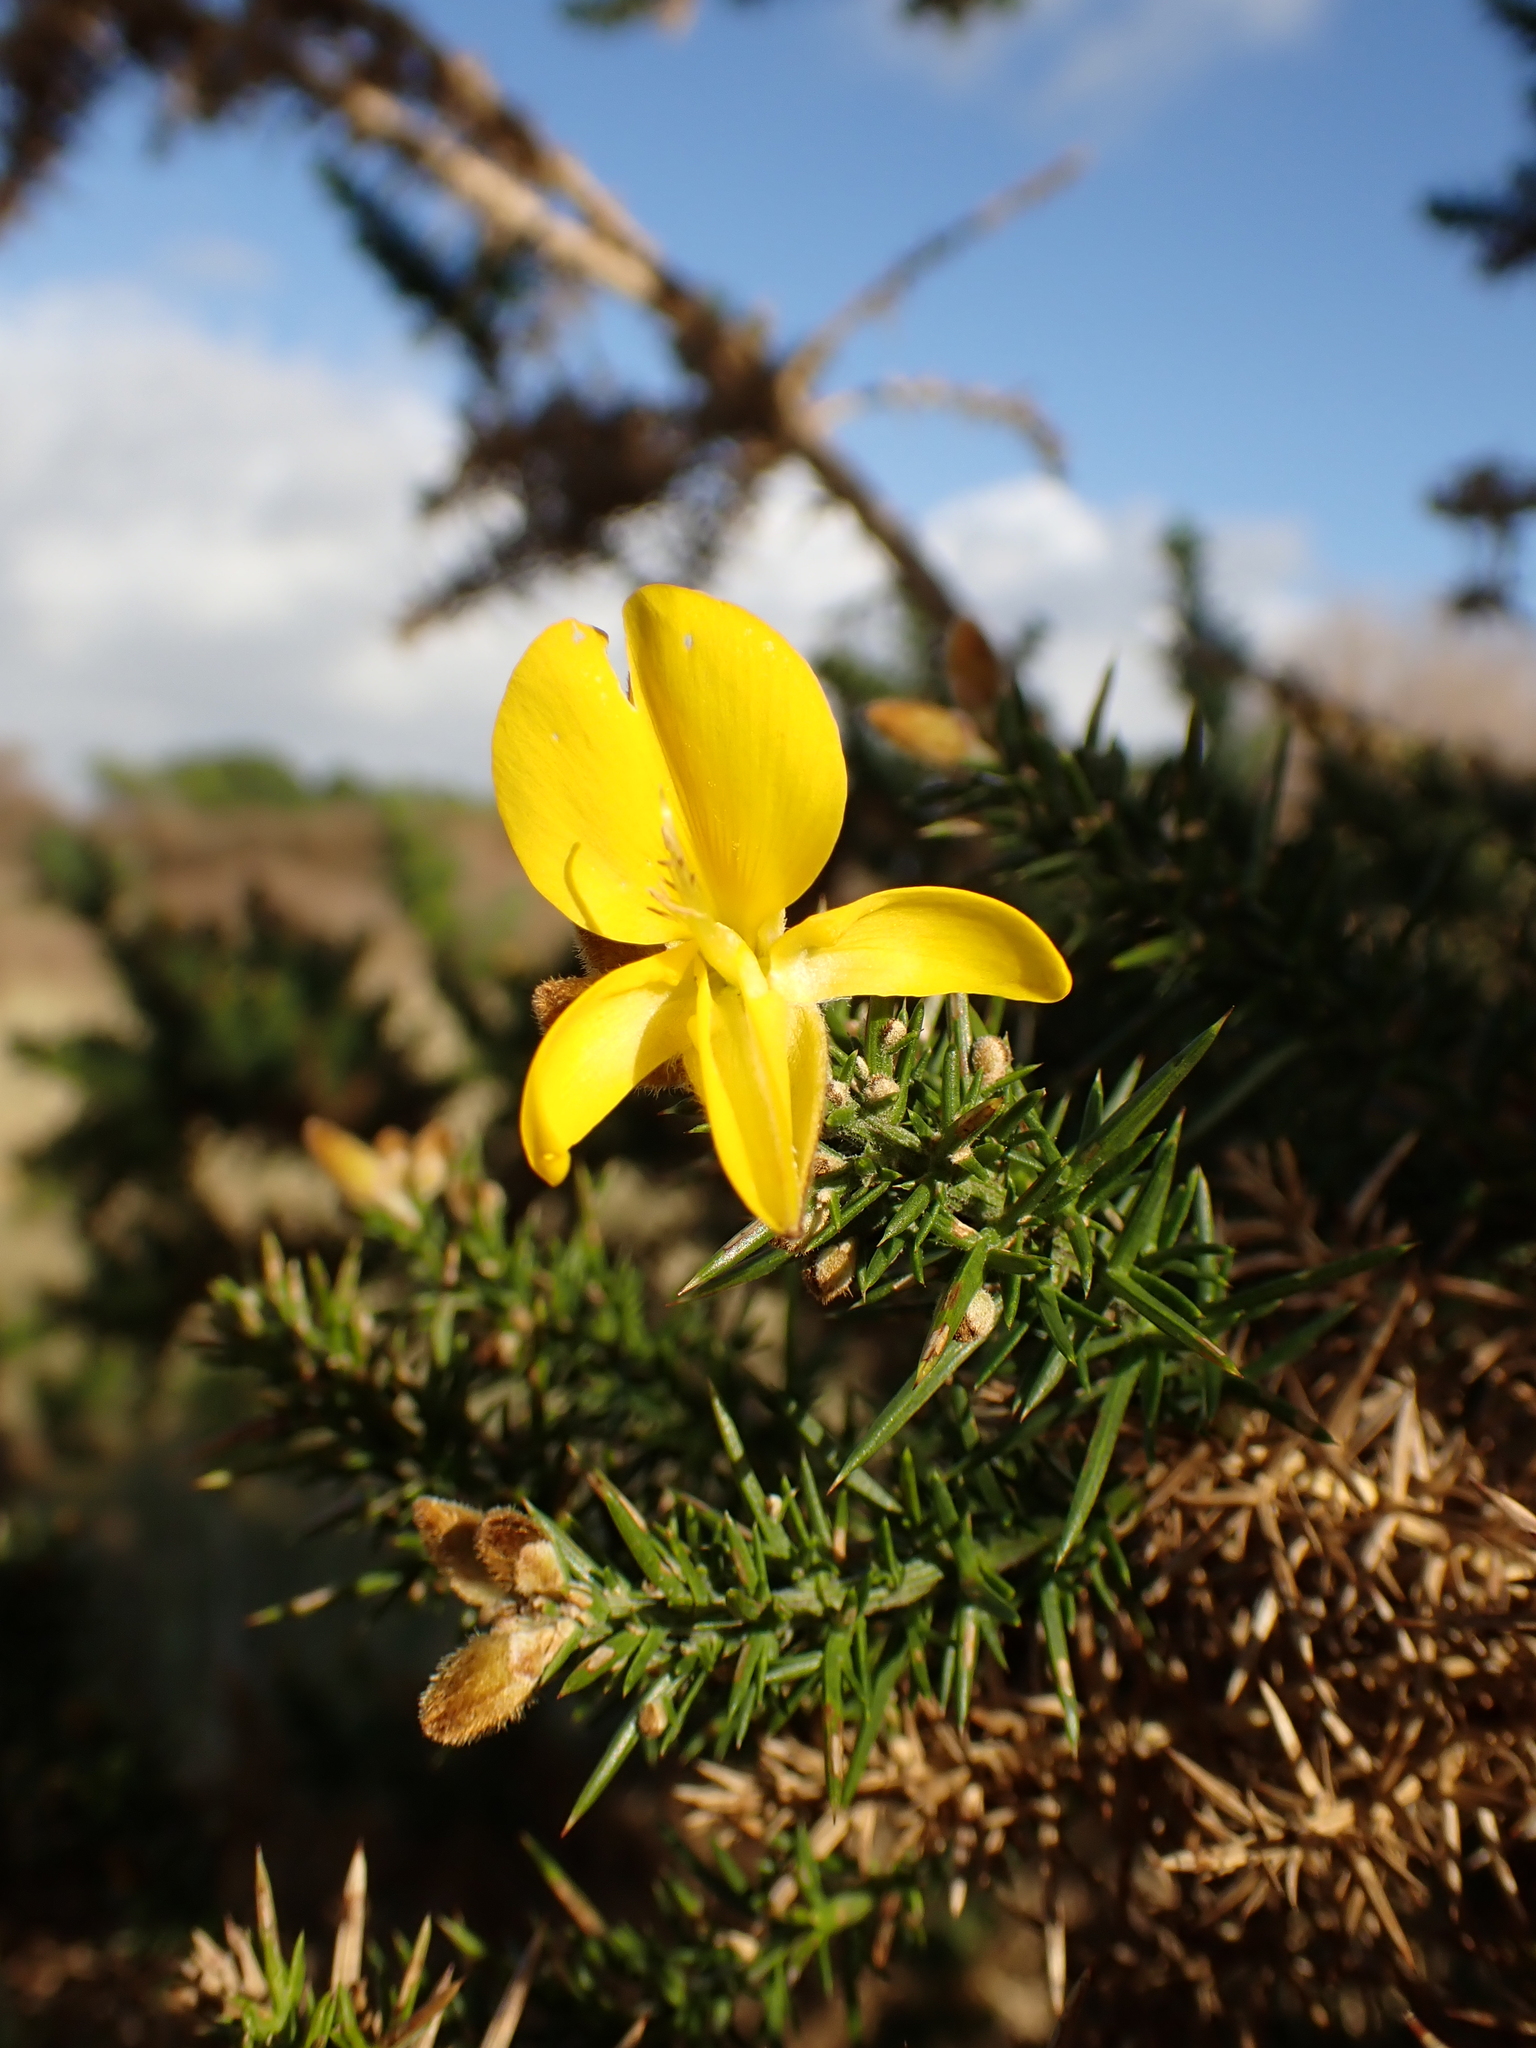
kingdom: Plantae
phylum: Tracheophyta
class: Magnoliopsida
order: Fabales
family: Fabaceae
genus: Ulex
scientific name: Ulex europaeus
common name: Common gorse
